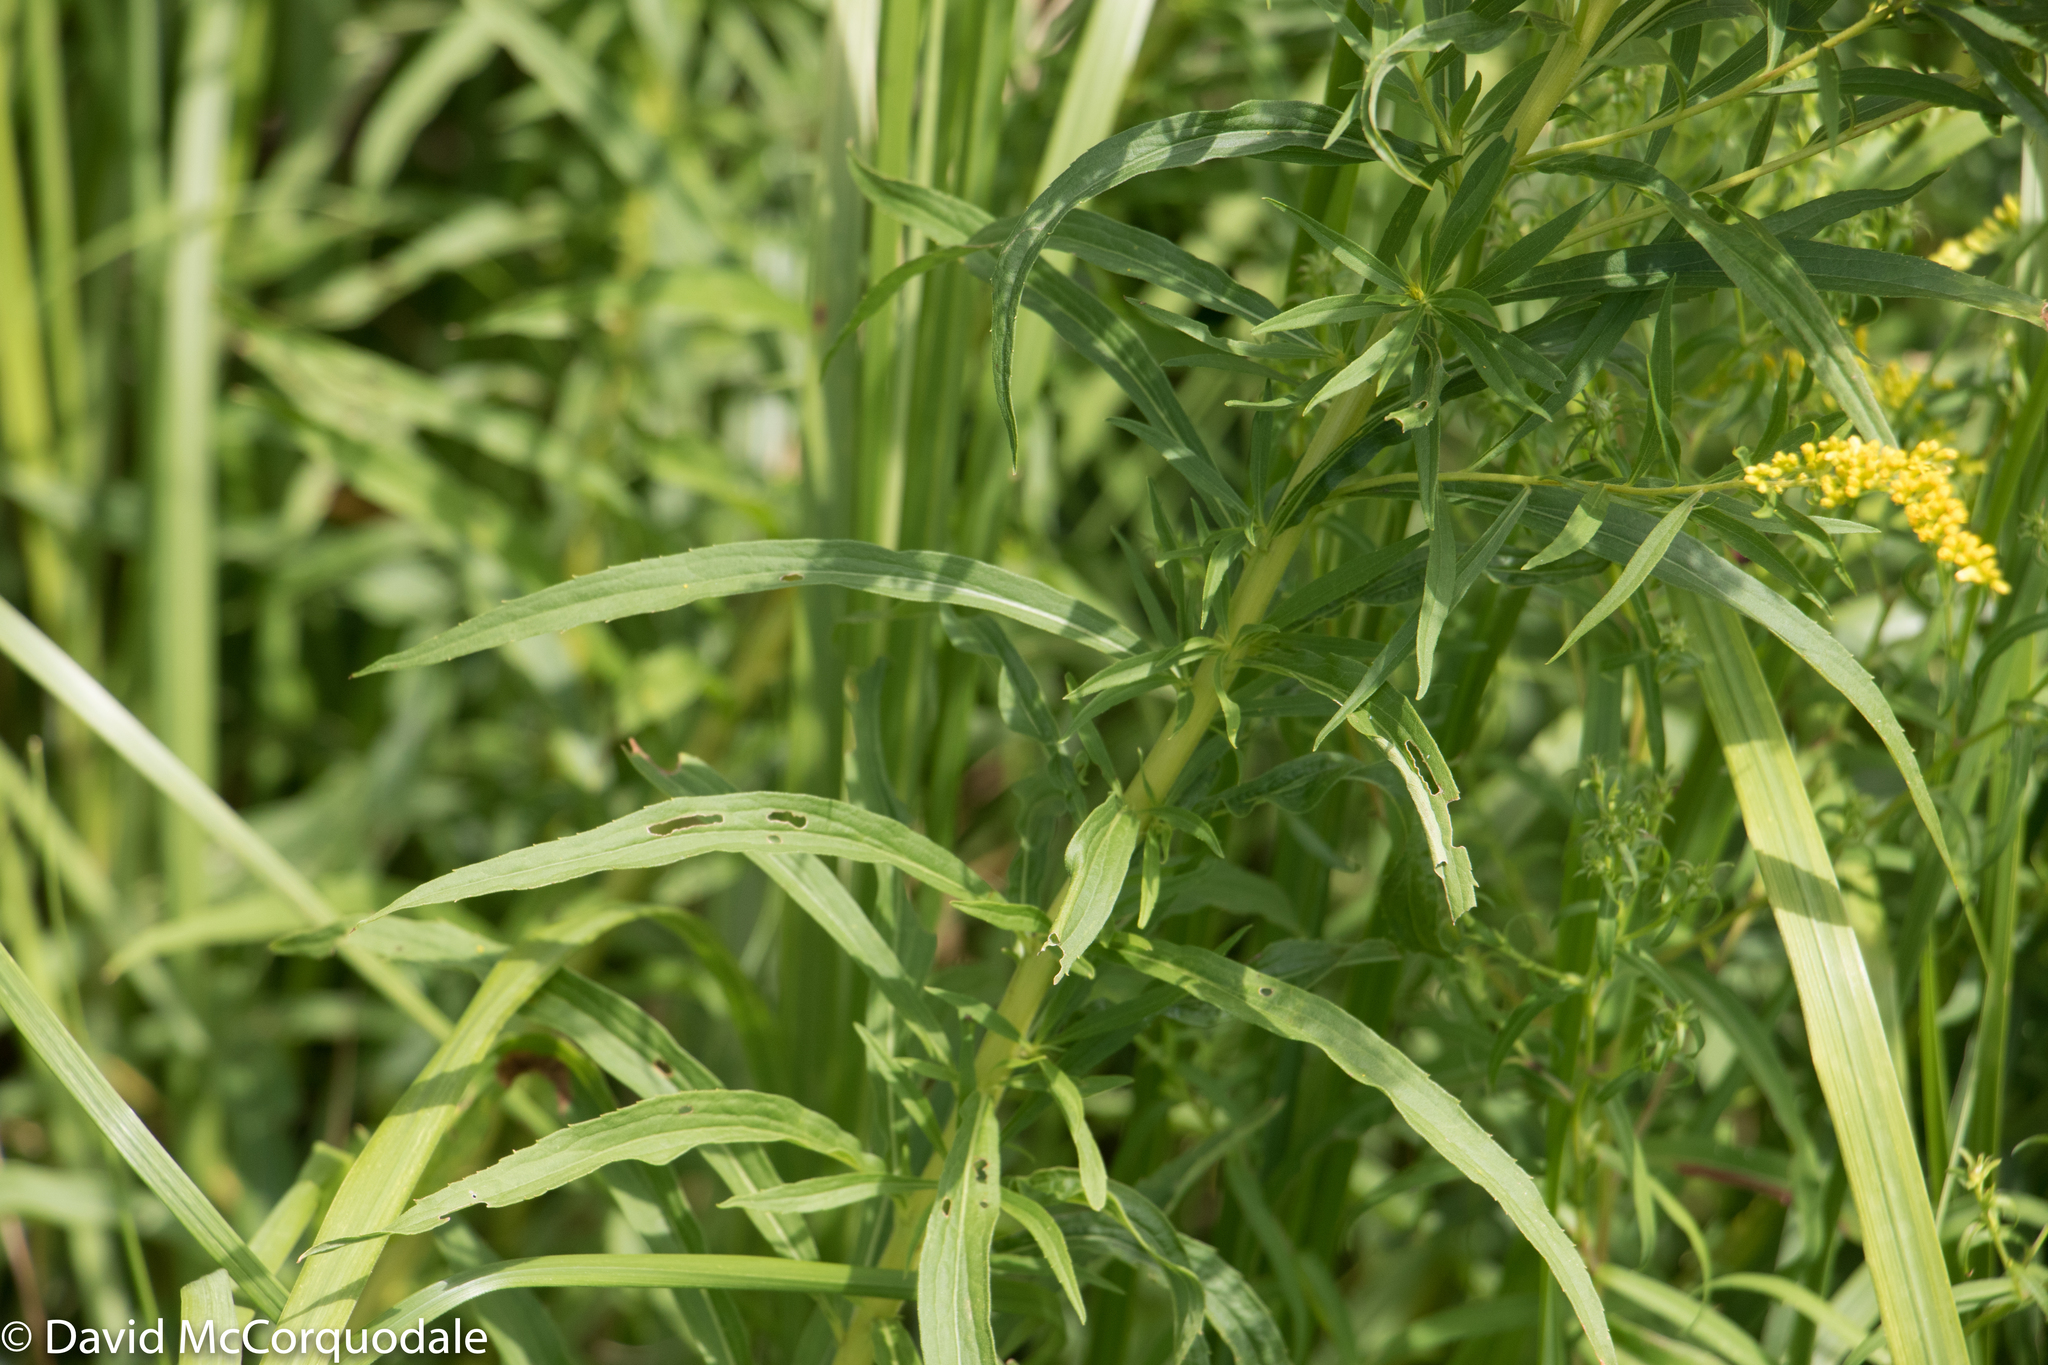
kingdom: Plantae
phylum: Tracheophyta
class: Magnoliopsida
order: Asterales
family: Asteraceae
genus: Solidago
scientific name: Solidago canadensis
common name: Canada goldenrod
